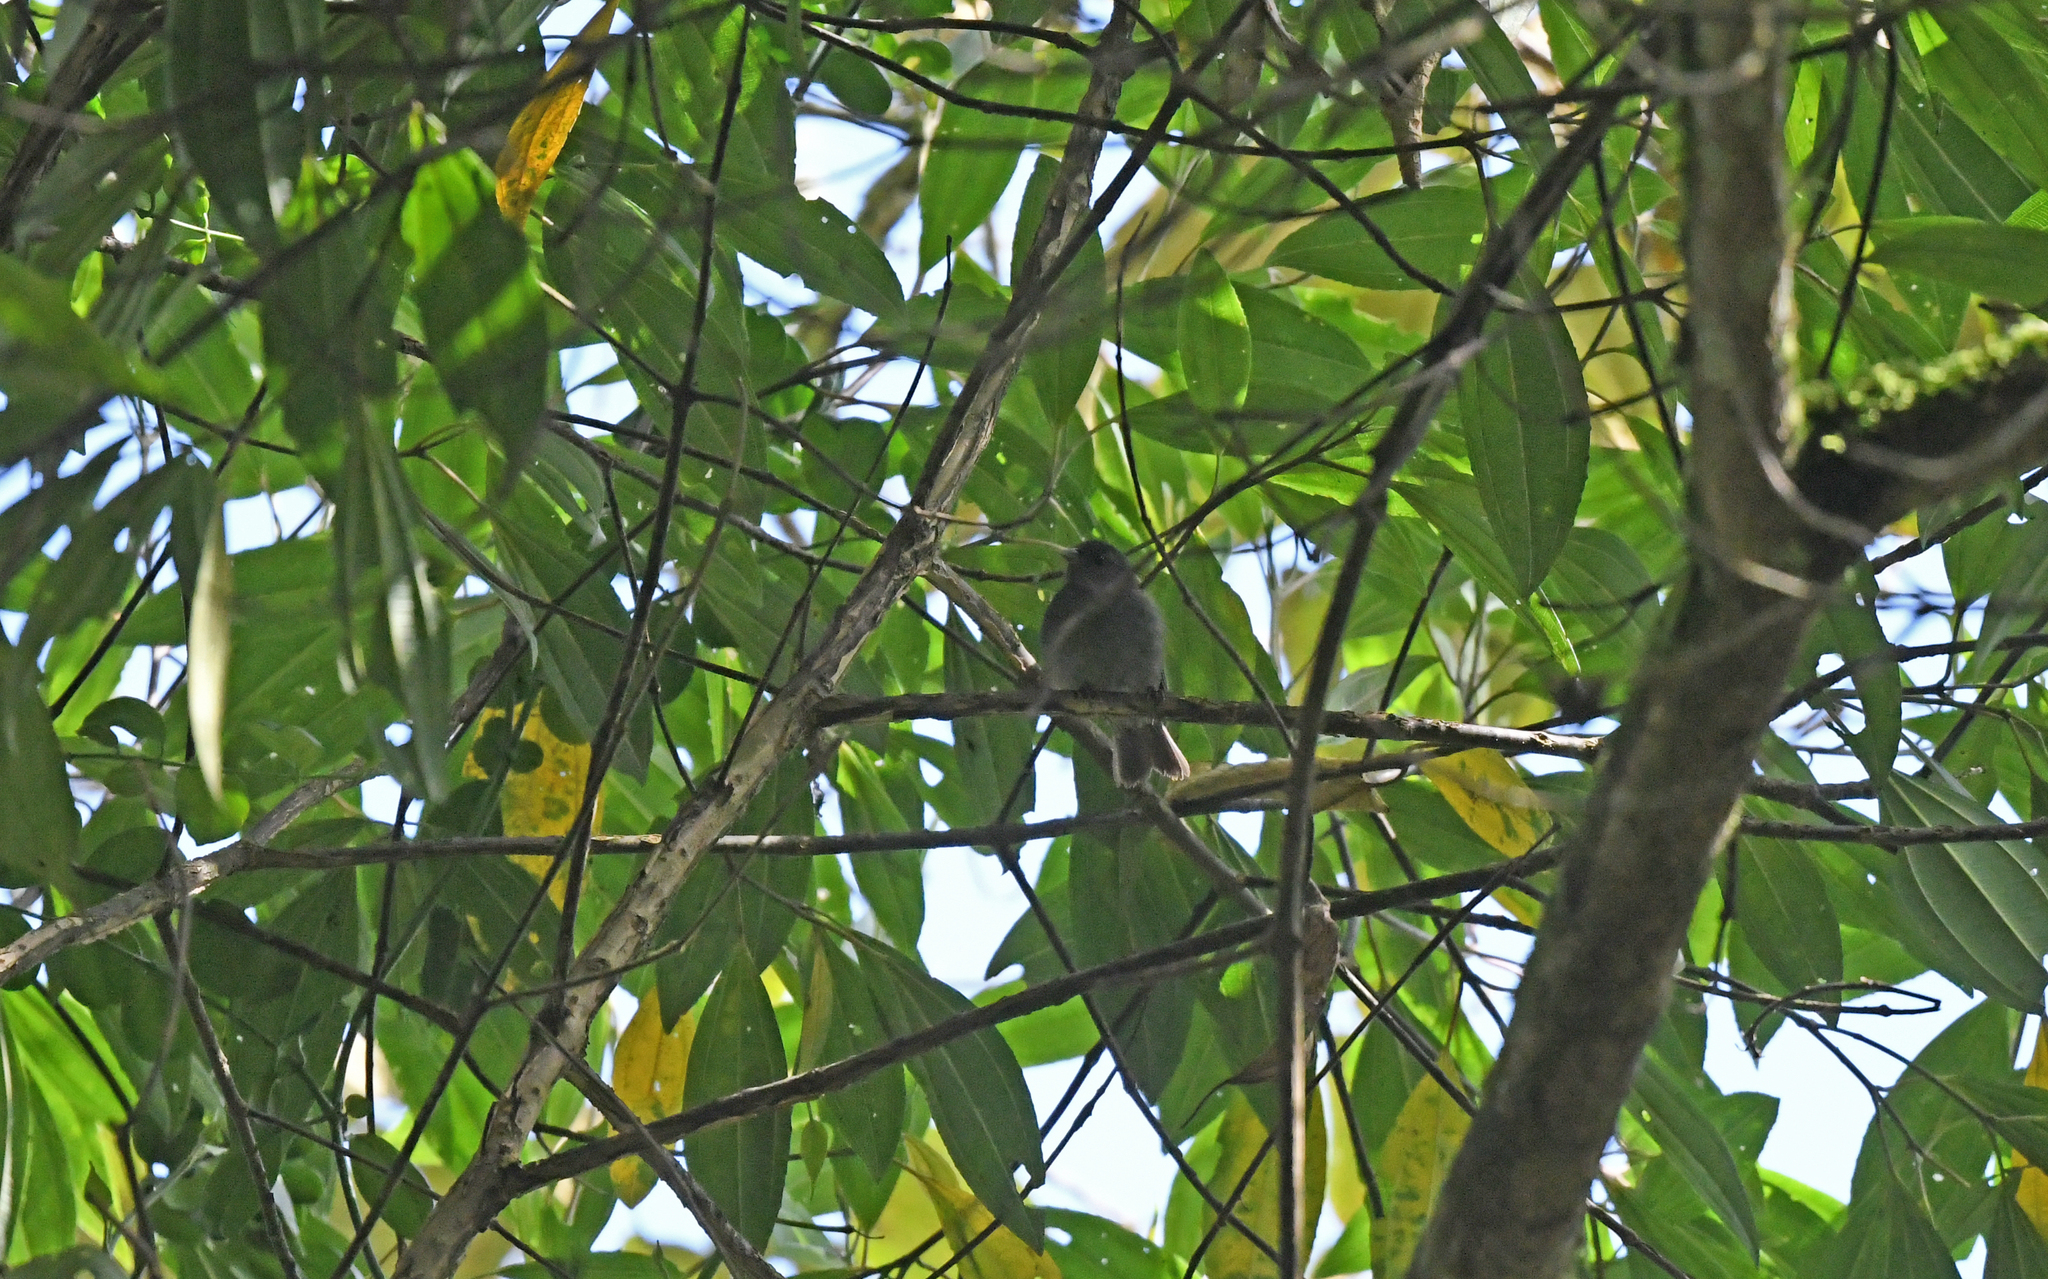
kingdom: Animalia
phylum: Chordata
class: Aves
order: Passeriformes
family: Thraupidae
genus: Haplospiza
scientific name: Haplospiza rustica
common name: Slaty finch
